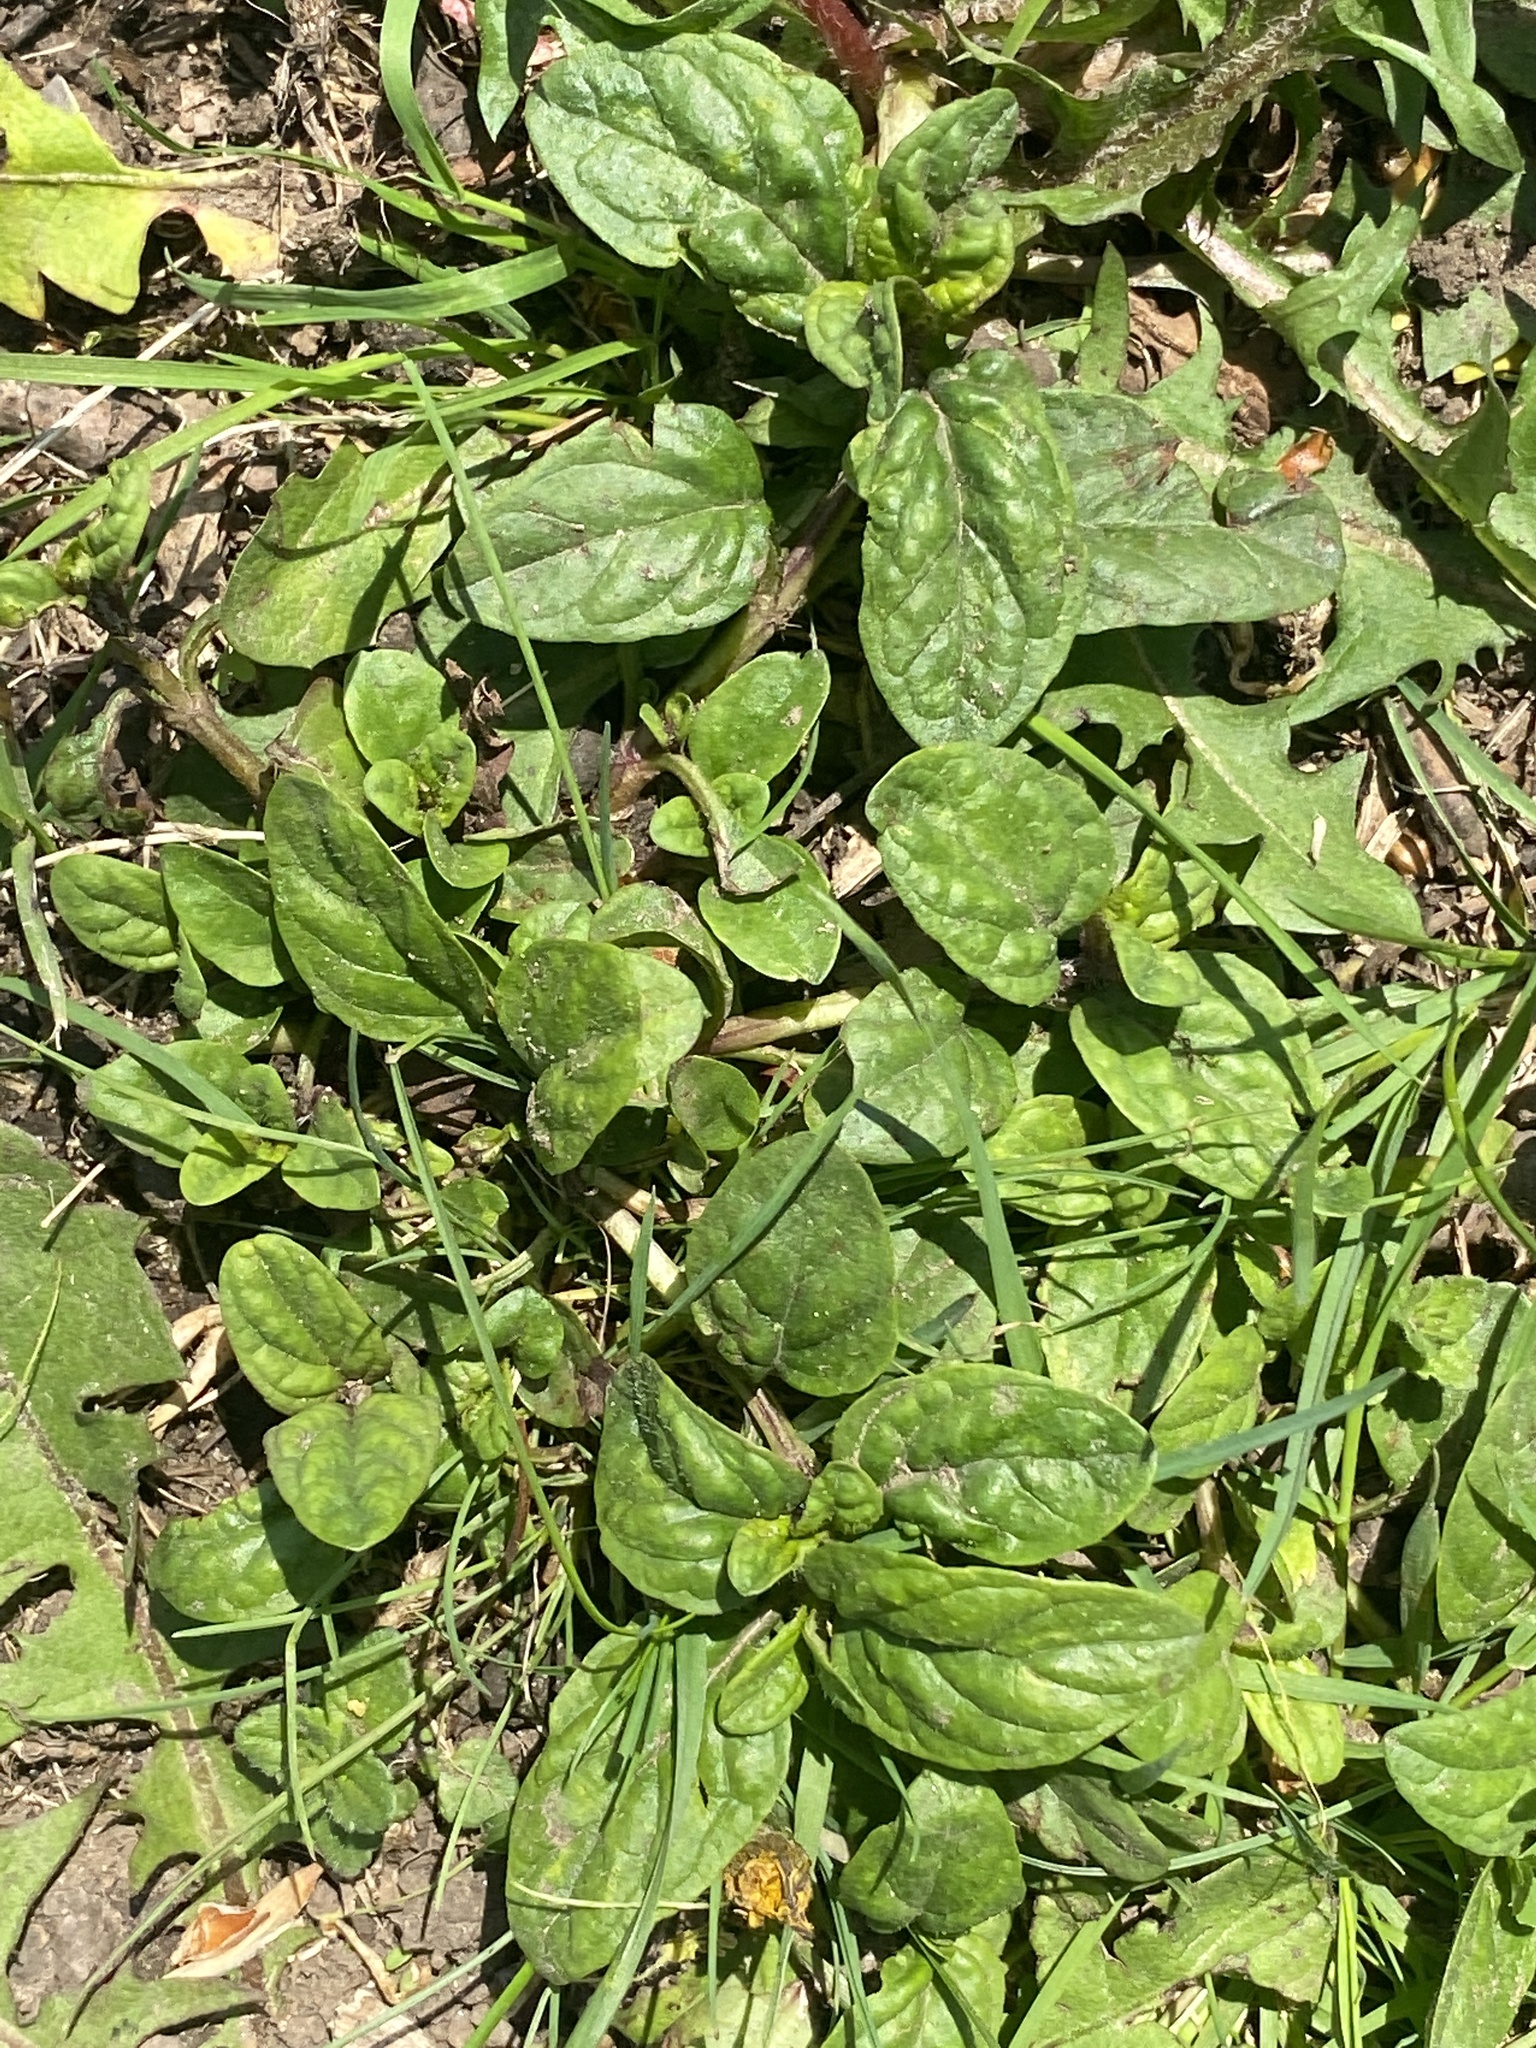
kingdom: Plantae
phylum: Tracheophyta
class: Magnoliopsida
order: Lamiales
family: Lamiaceae
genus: Prunella
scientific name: Prunella vulgaris
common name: Heal-all
